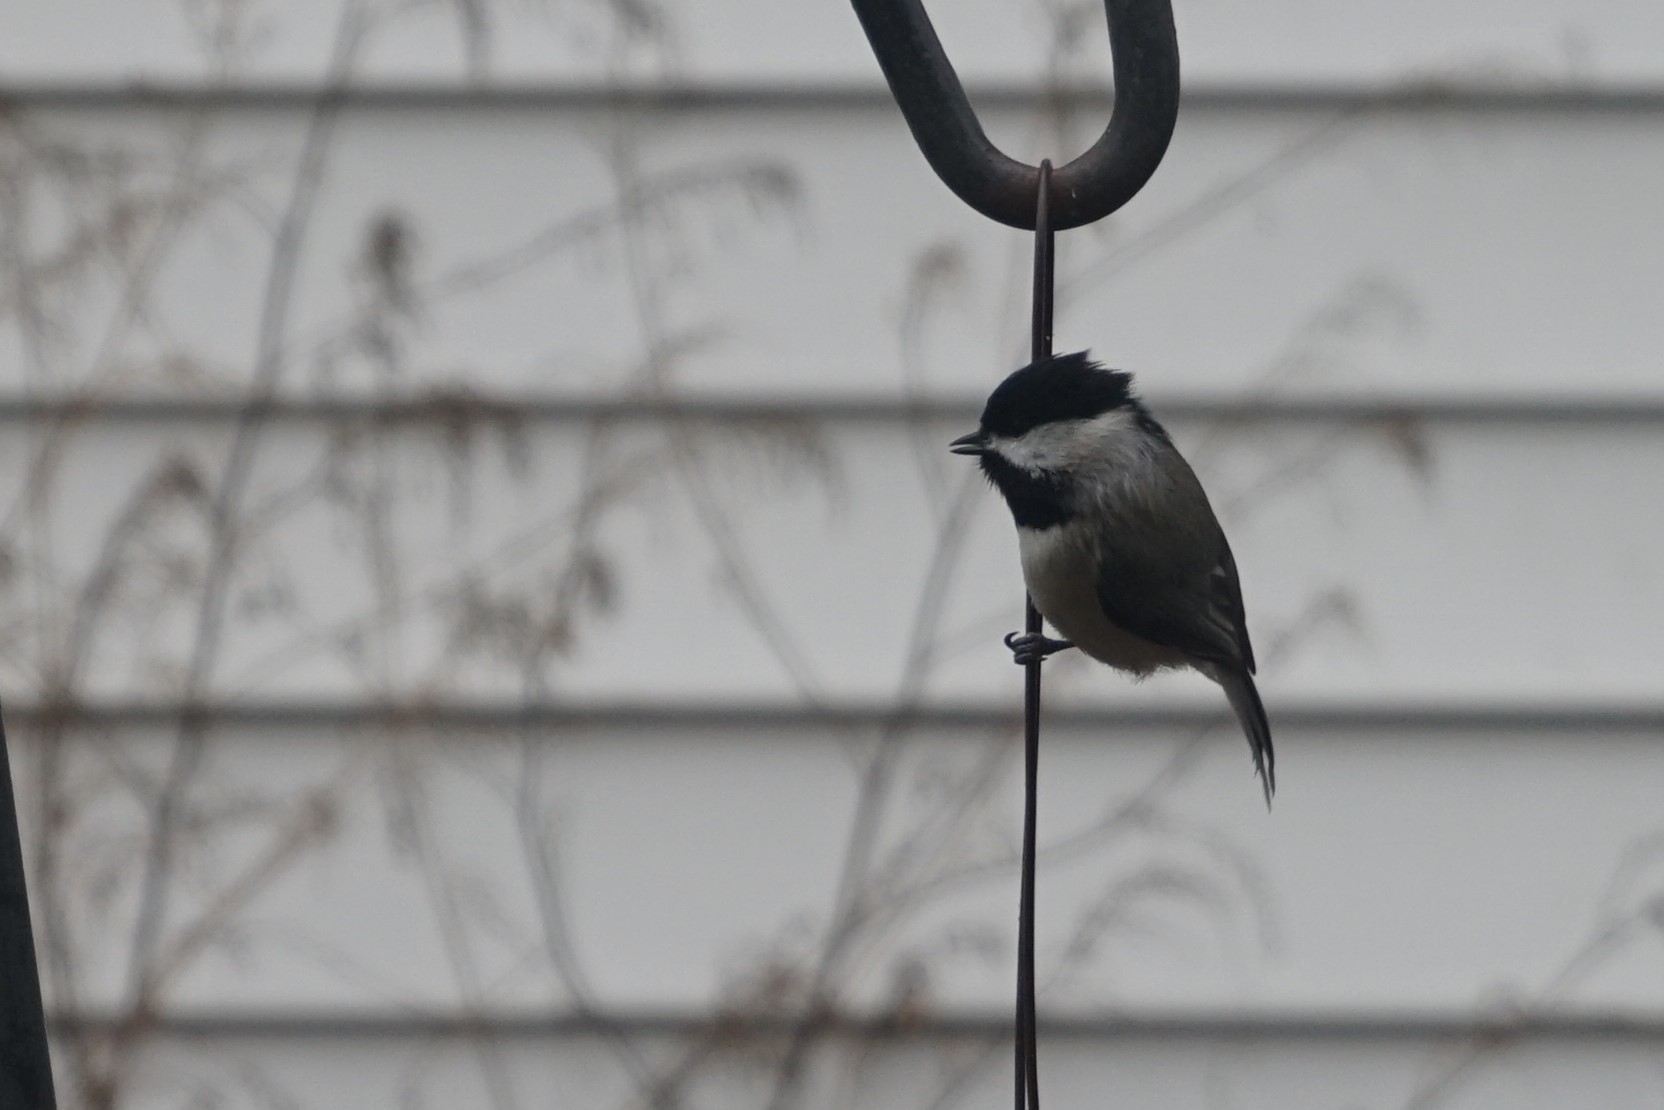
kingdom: Animalia
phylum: Chordata
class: Aves
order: Passeriformes
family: Paridae
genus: Poecile
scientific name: Poecile carolinensis
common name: Carolina chickadee
